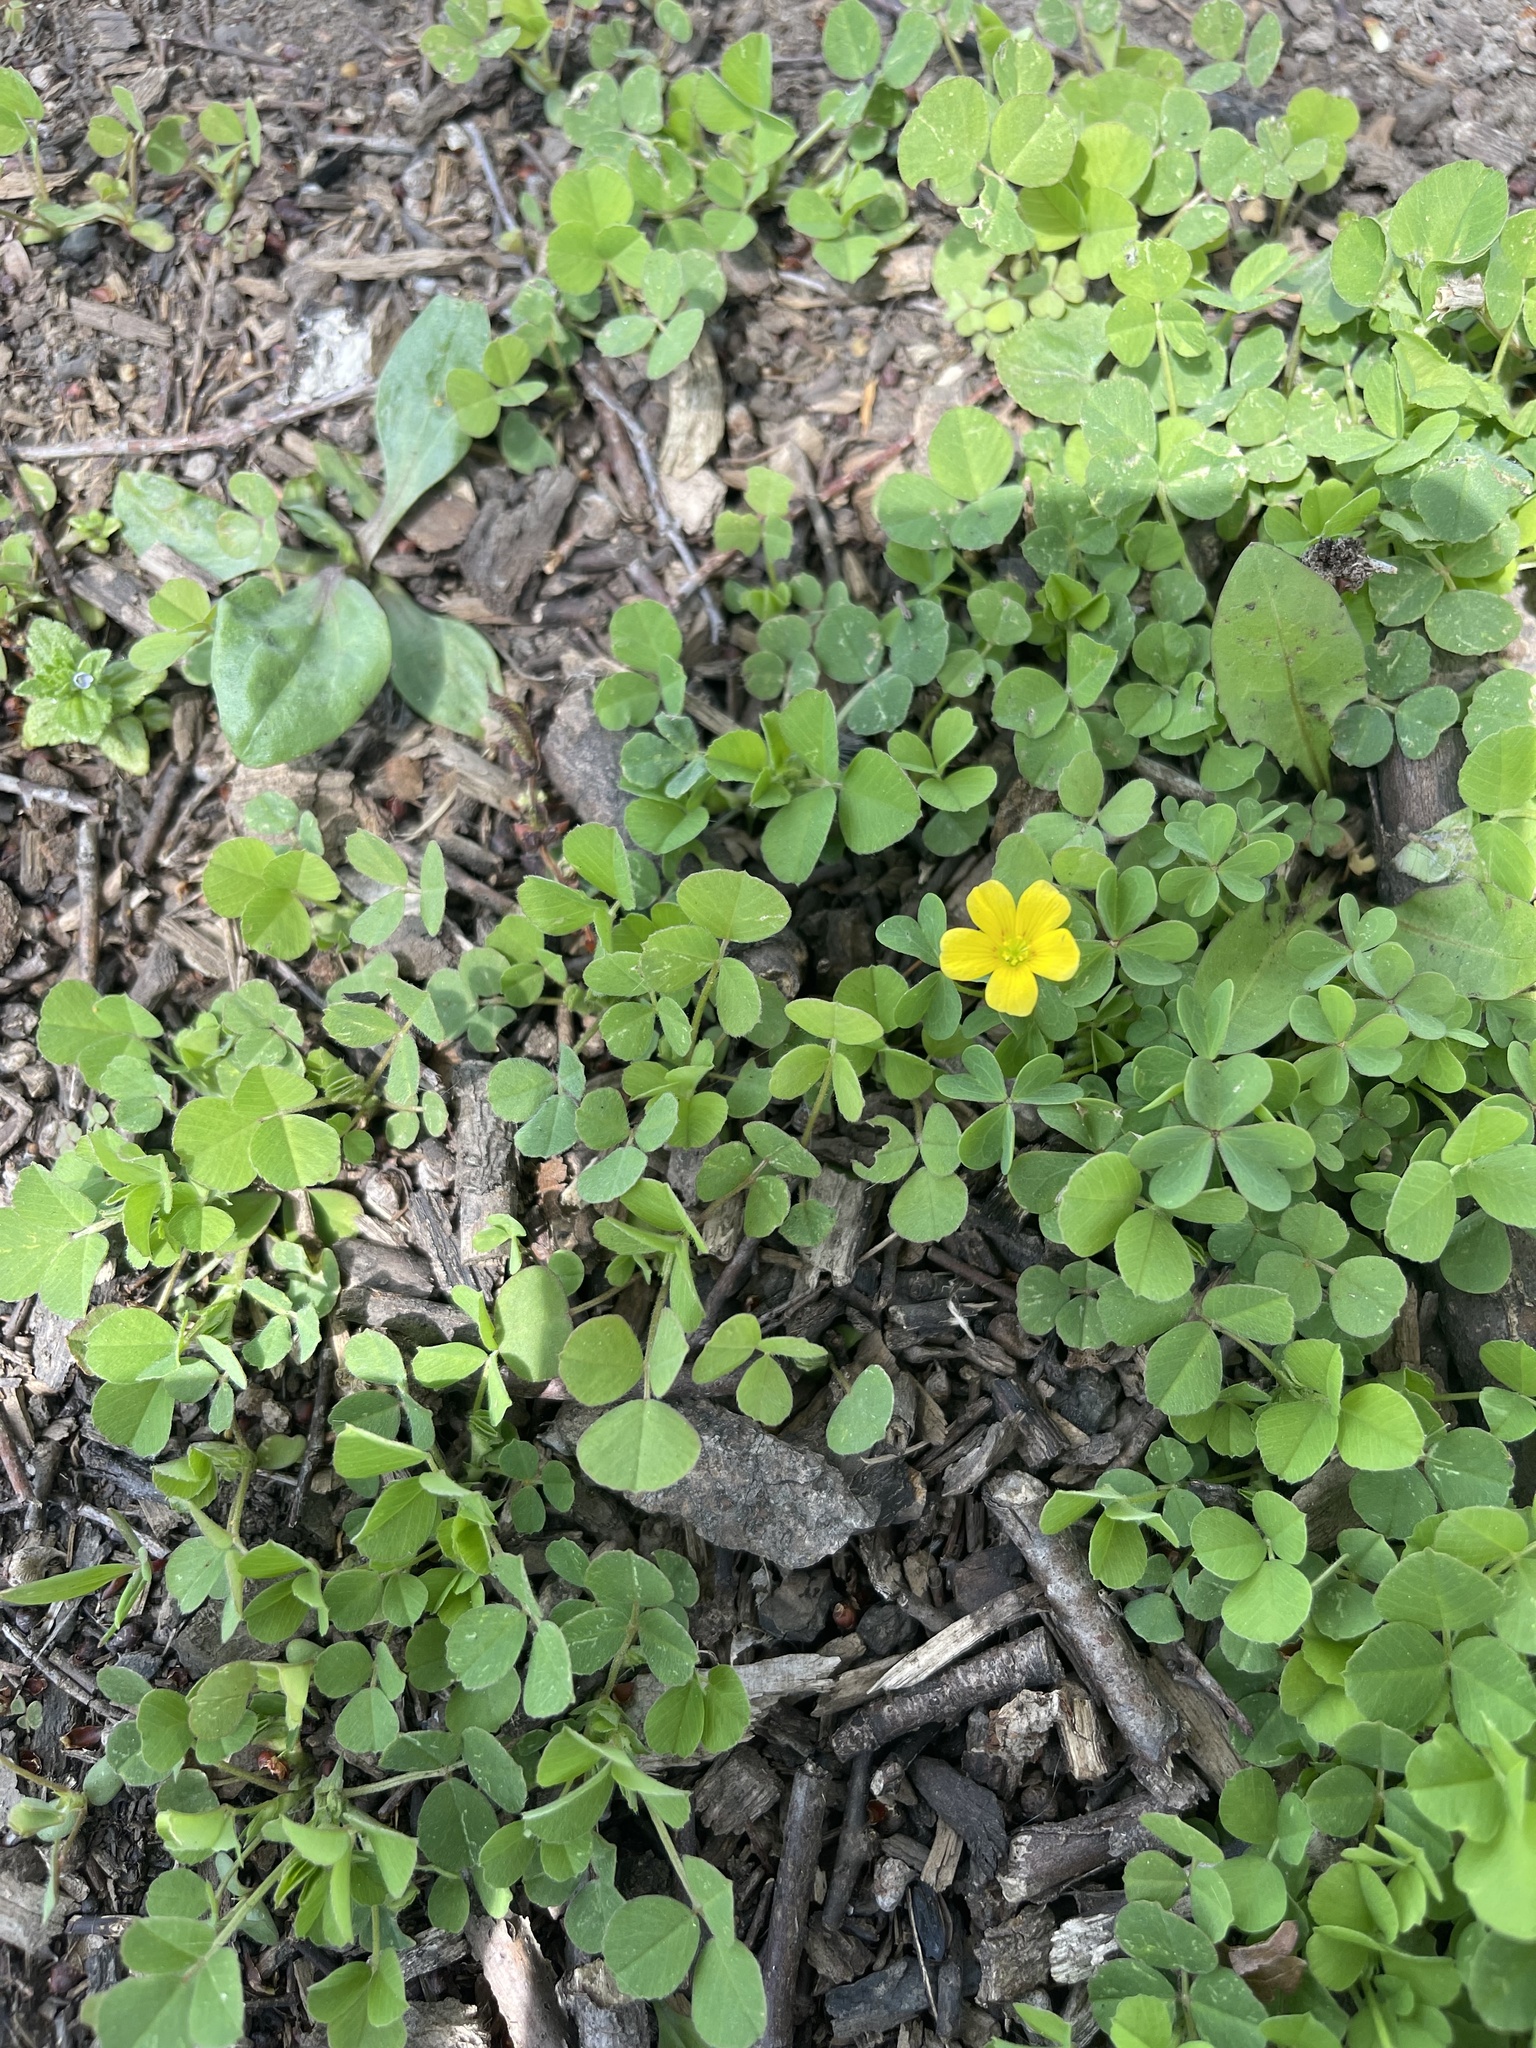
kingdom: Plantae
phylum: Tracheophyta
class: Magnoliopsida
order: Oxalidales
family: Oxalidaceae
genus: Oxalis
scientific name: Oxalis corniculata
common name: Procumbent yellow-sorrel
